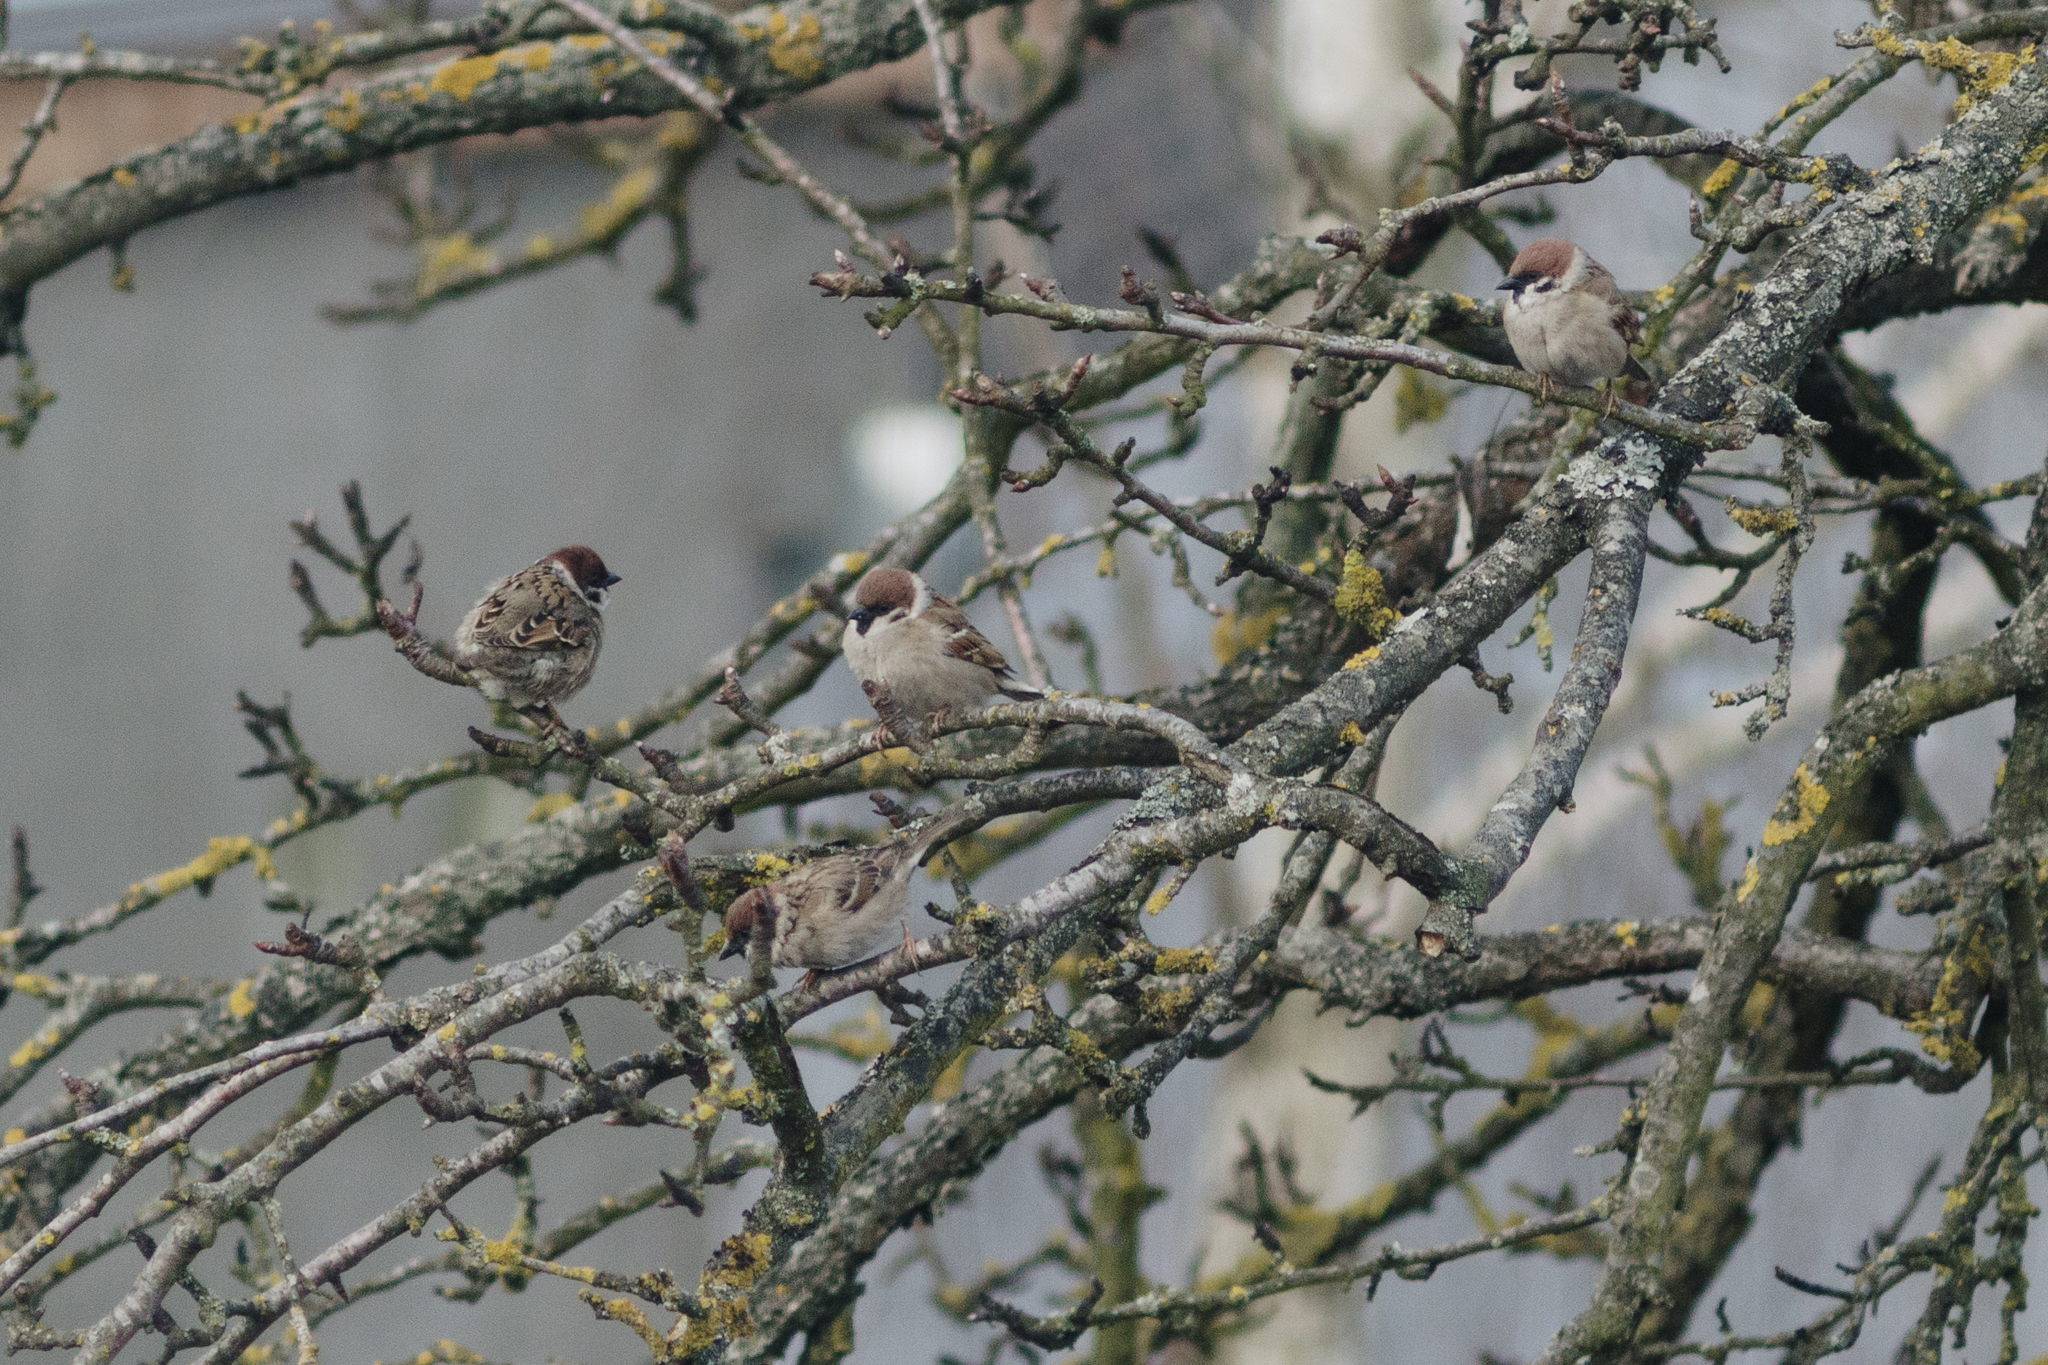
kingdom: Animalia
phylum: Chordata
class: Aves
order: Passeriformes
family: Passeridae
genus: Passer
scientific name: Passer montanus
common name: Eurasian tree sparrow
